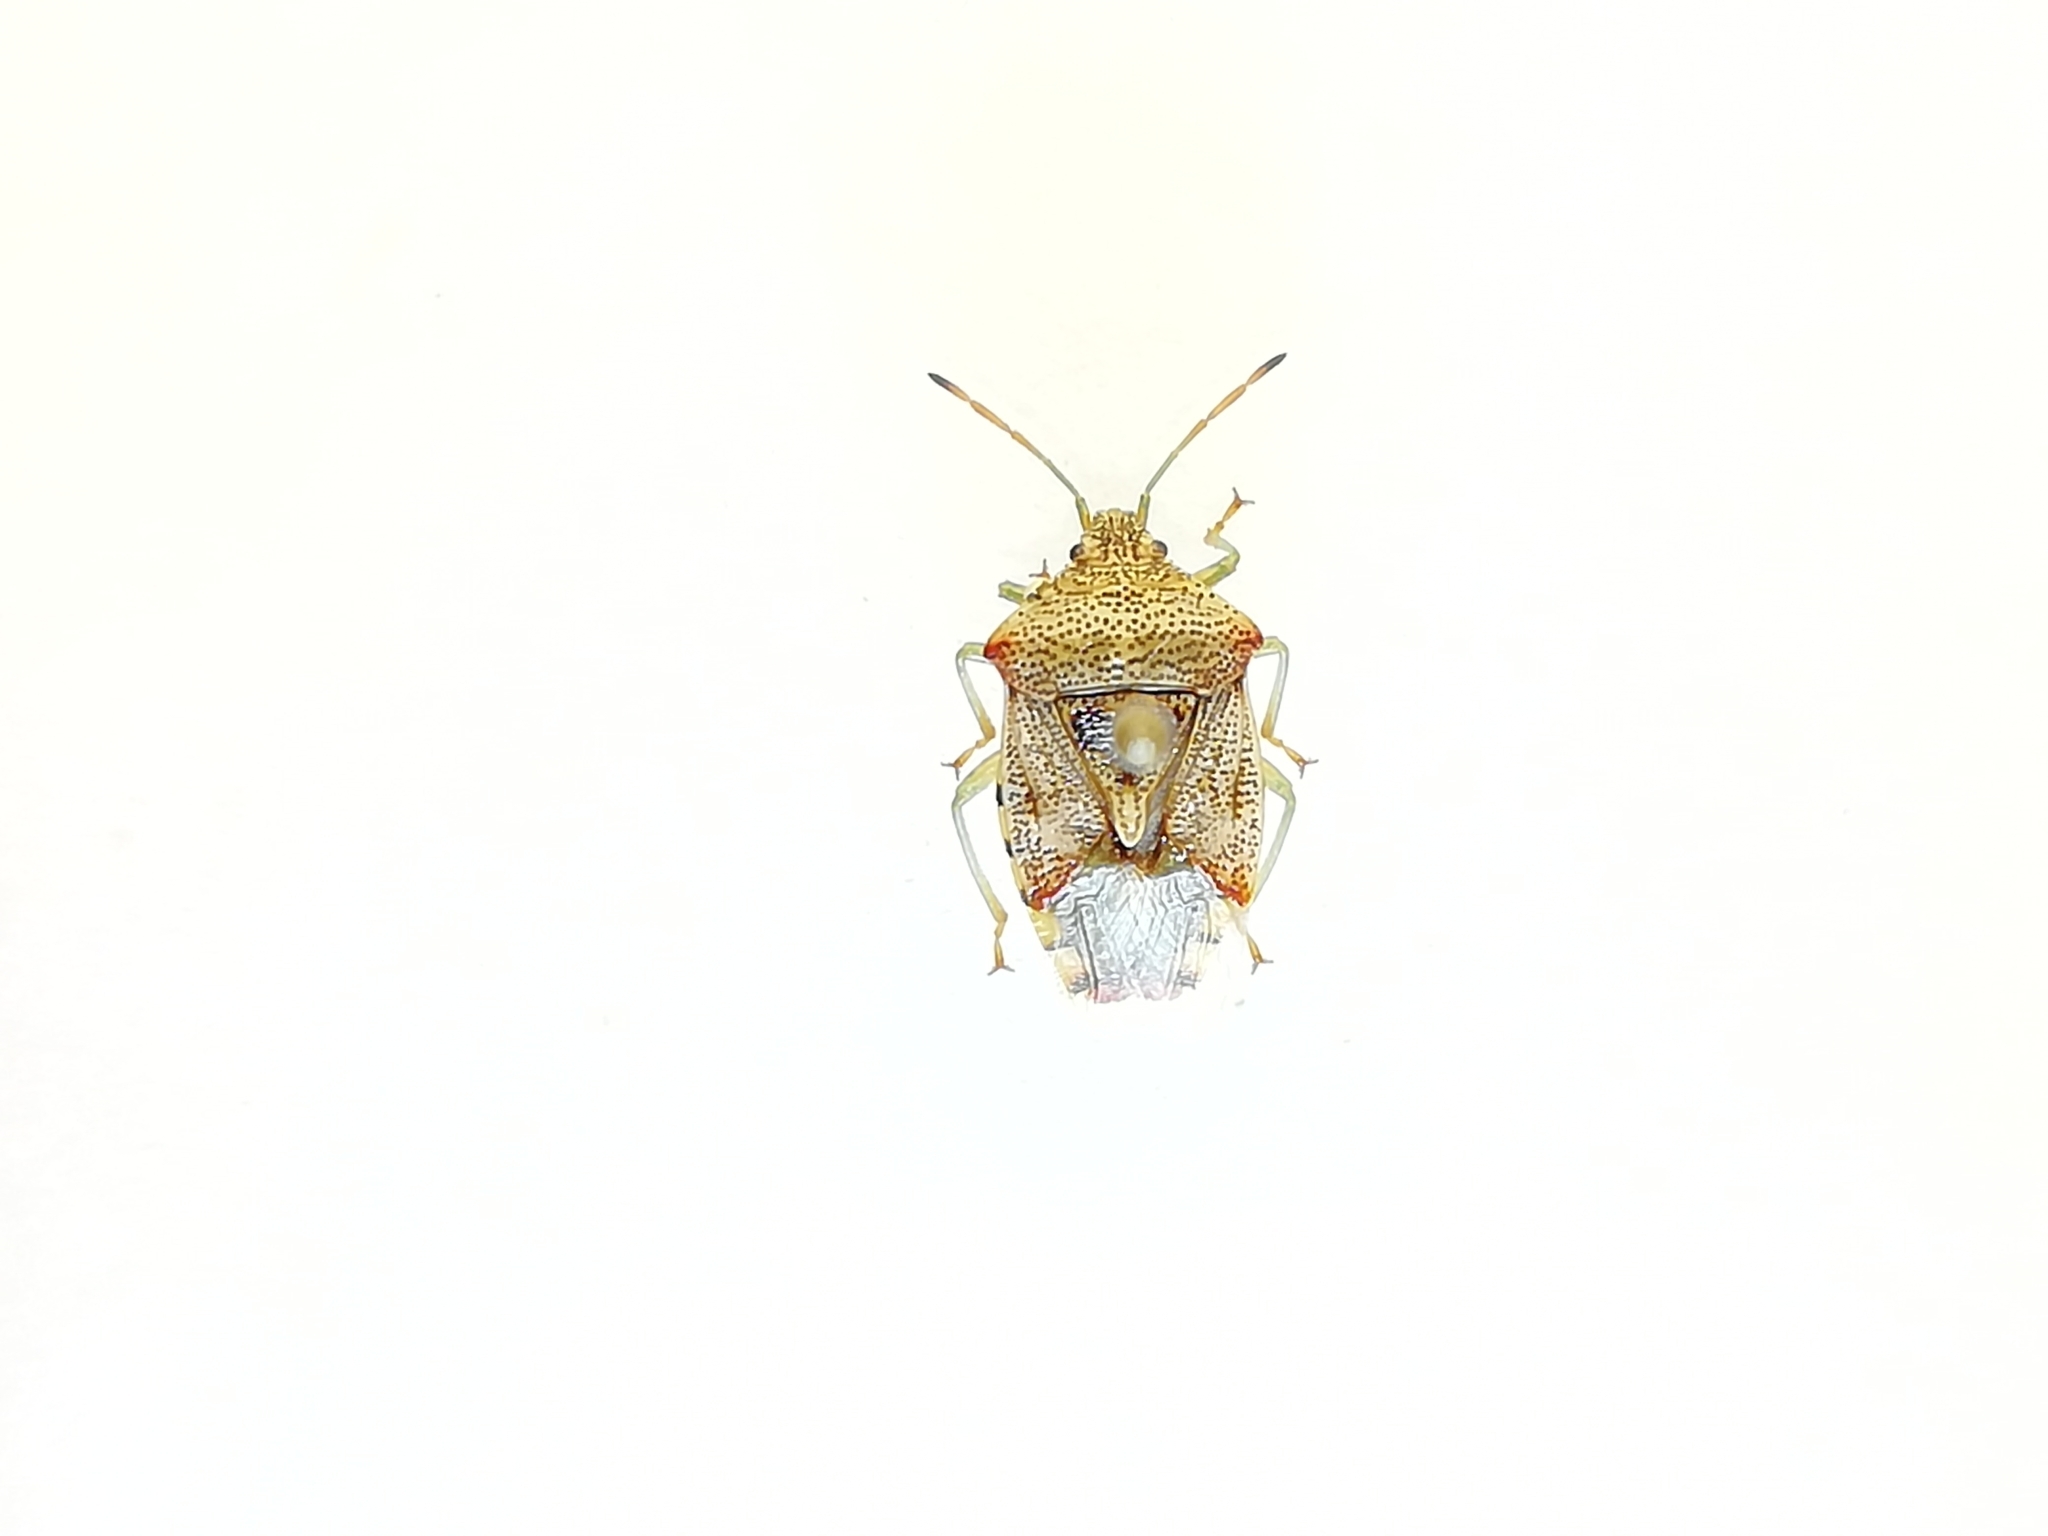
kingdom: Animalia
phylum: Arthropoda
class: Insecta
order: Hemiptera
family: Acanthosomatidae
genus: Elasmucha
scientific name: Elasmucha grisea
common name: Parent bug
